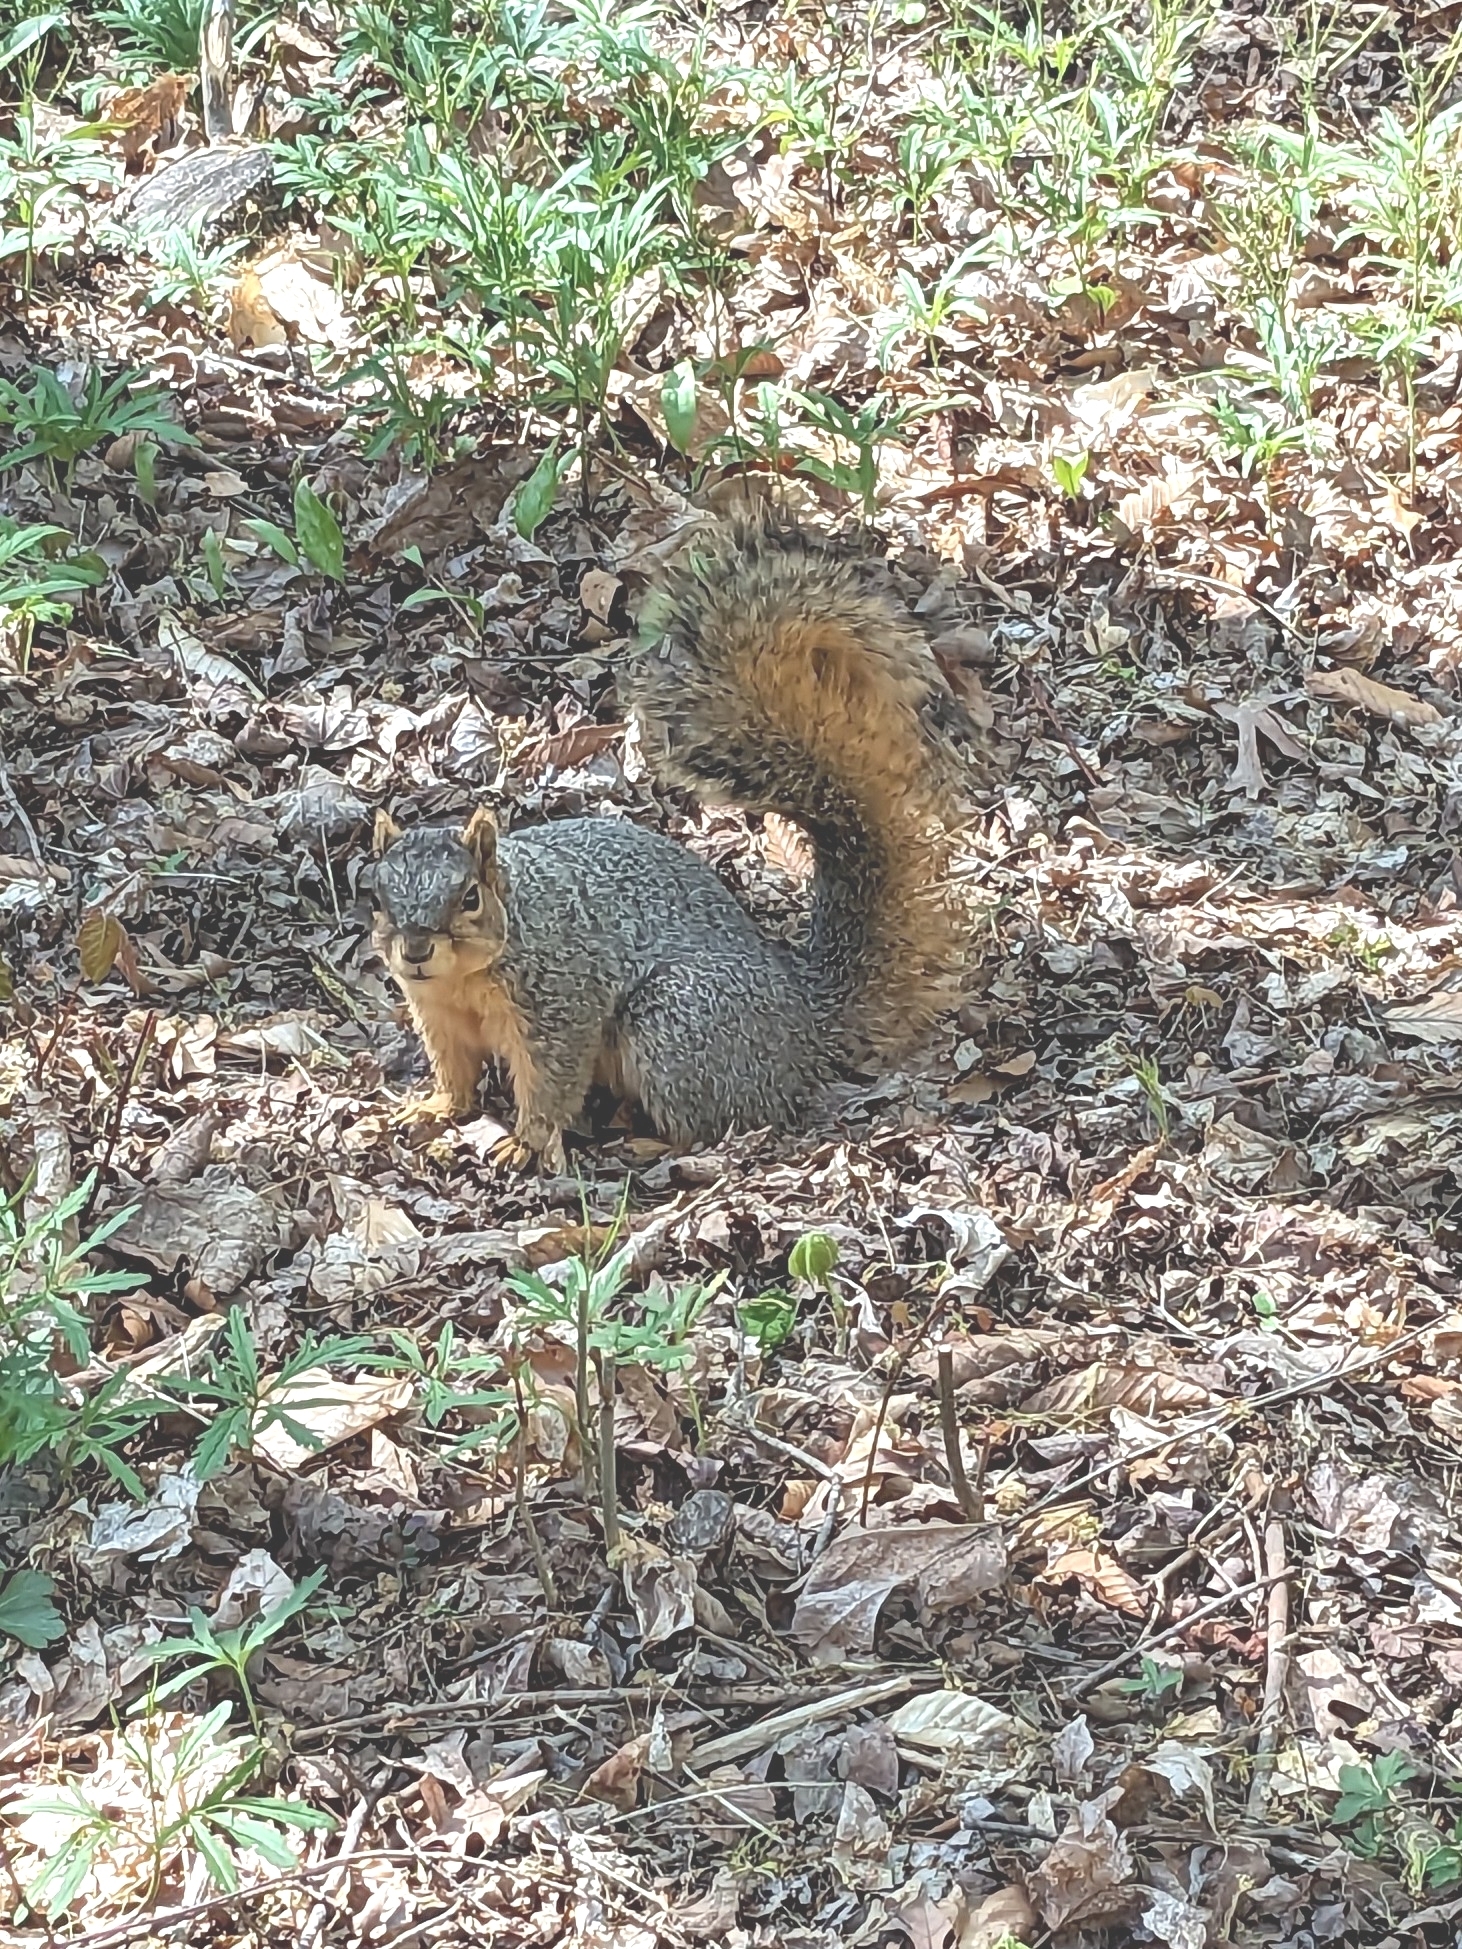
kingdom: Animalia
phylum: Chordata
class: Mammalia
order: Rodentia
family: Sciuridae
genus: Sciurus
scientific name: Sciurus niger
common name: Fox squirrel
